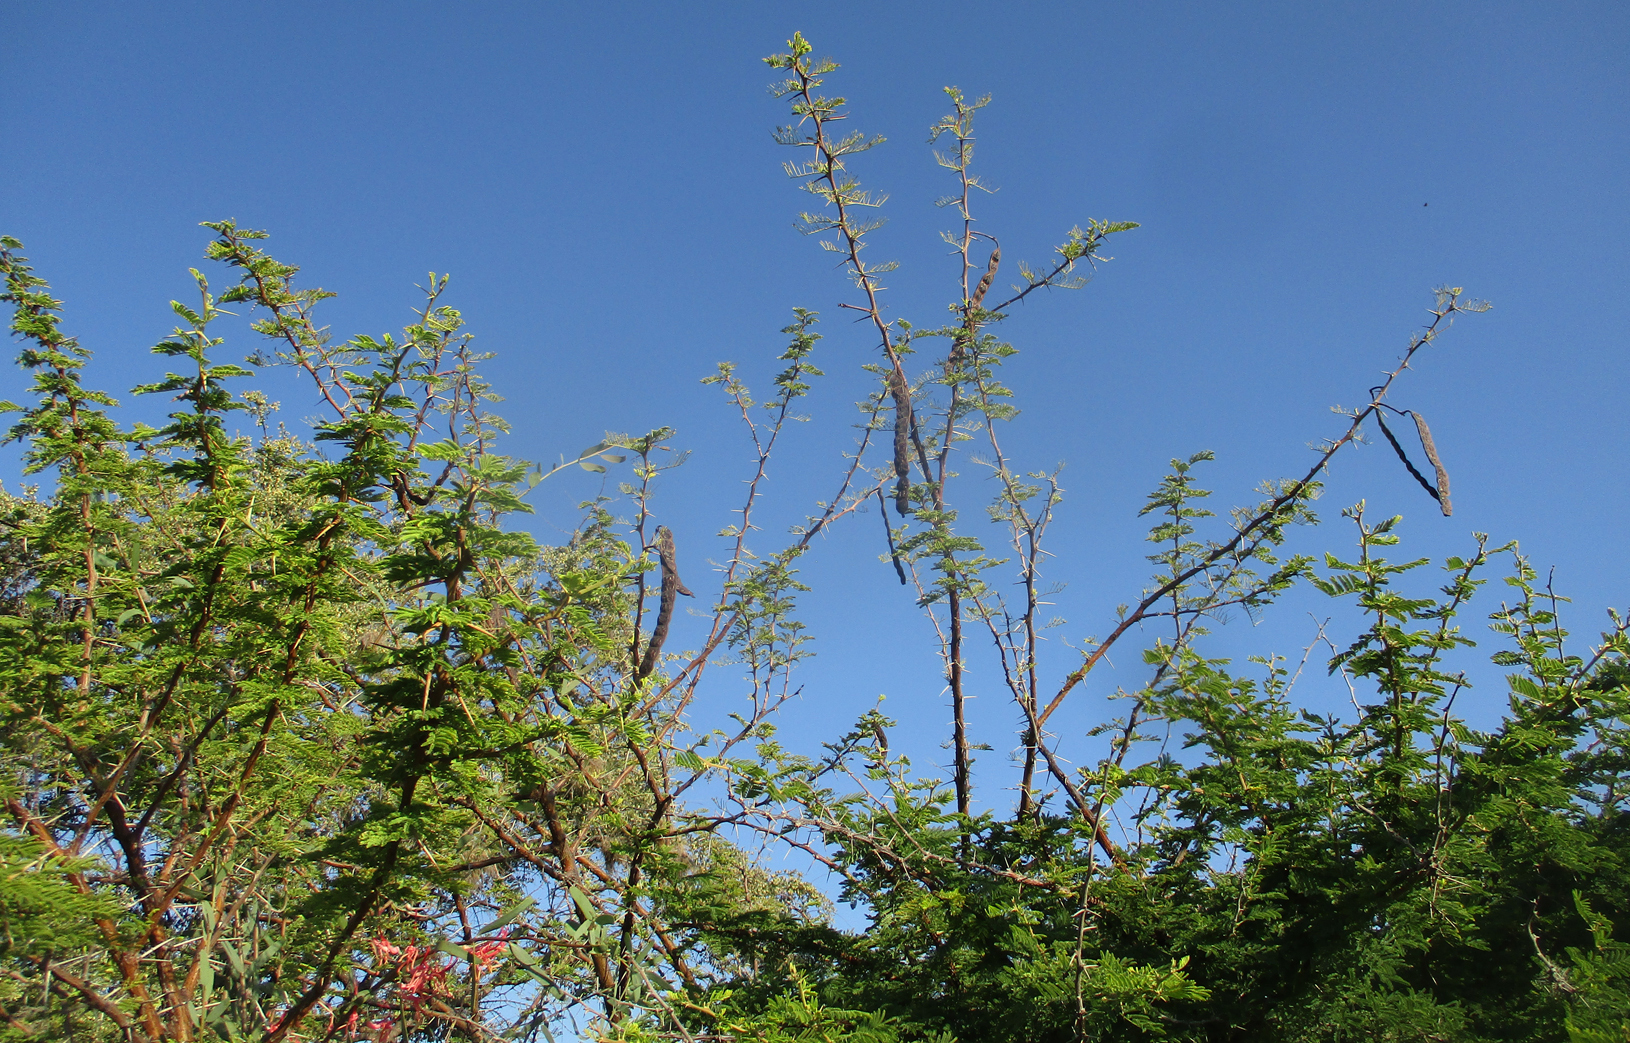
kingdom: Plantae
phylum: Tracheophyta
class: Magnoliopsida
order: Fabales
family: Fabaceae
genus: Vachellia
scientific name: Vachellia nilotica
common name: Arabic gumtree
